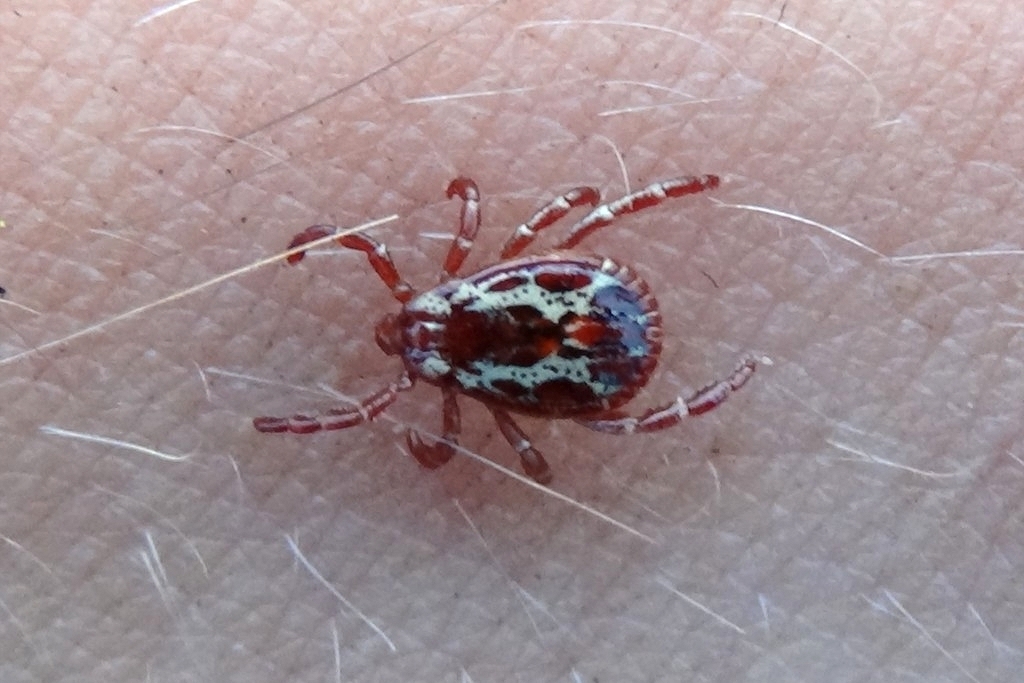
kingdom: Animalia
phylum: Arthropoda
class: Arachnida
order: Ixodida
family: Ixodidae
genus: Dermacentor
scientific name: Dermacentor variabilis
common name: American dog tick
